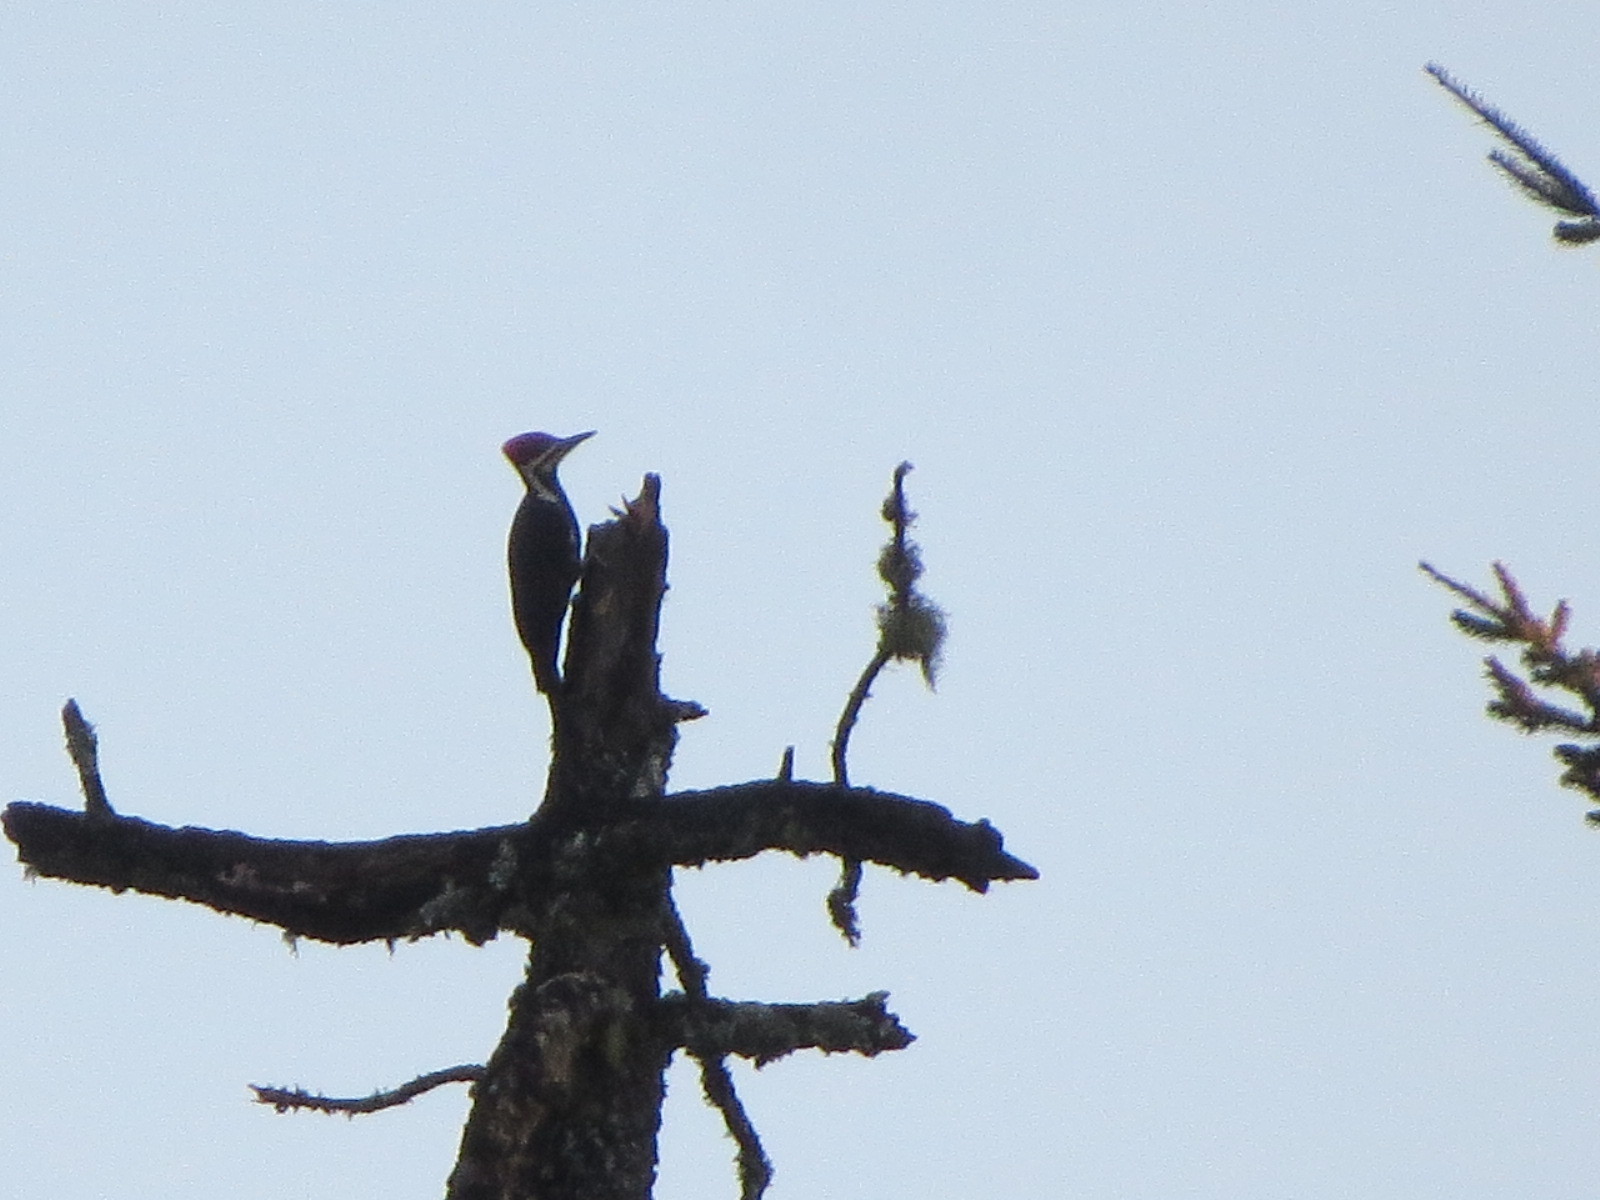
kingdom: Animalia
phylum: Chordata
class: Aves
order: Piciformes
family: Picidae
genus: Dryocopus
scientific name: Dryocopus pileatus
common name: Pileated woodpecker
